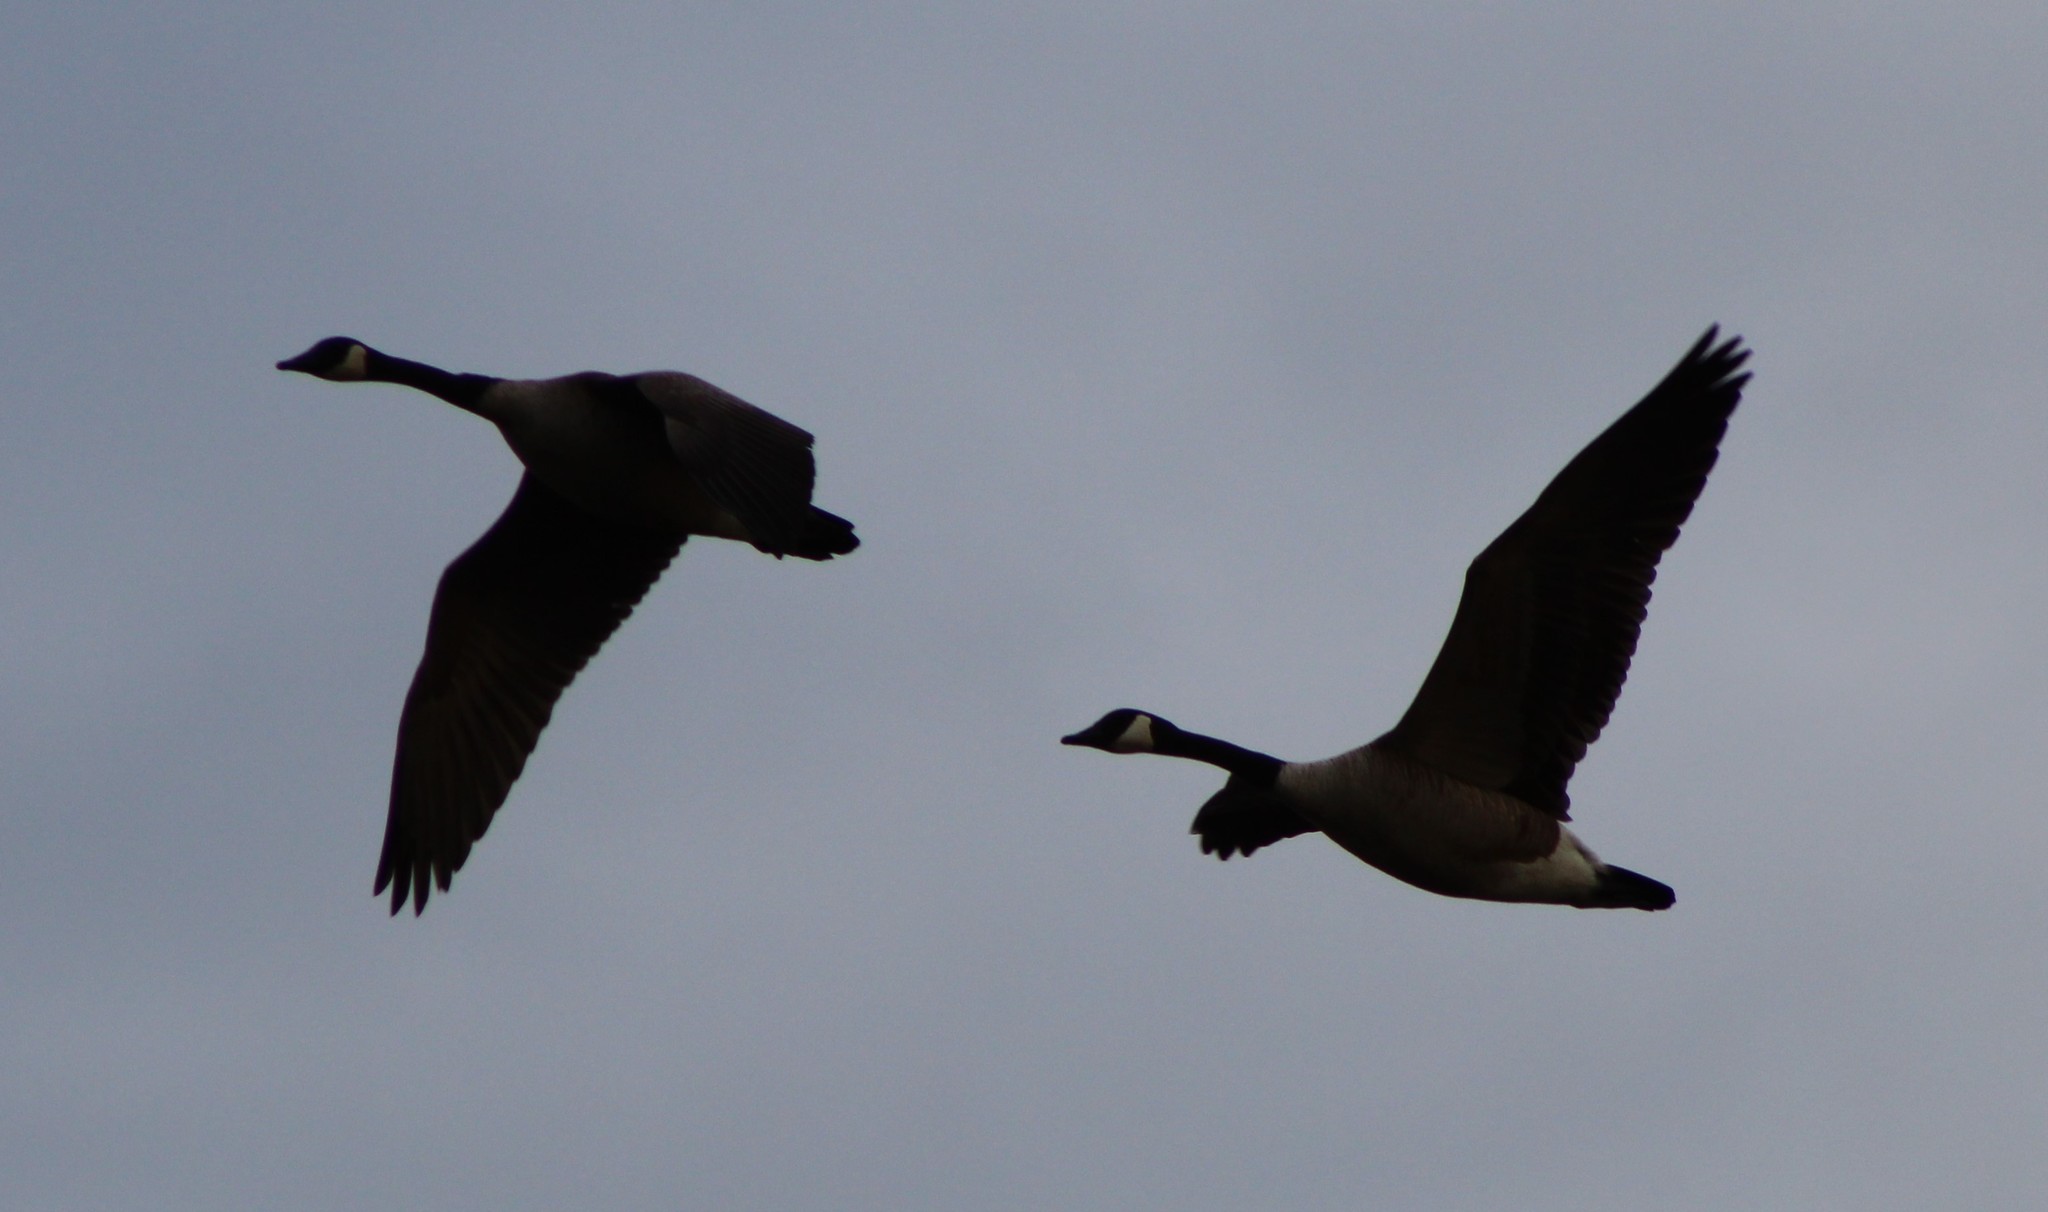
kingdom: Animalia
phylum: Chordata
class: Aves
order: Anseriformes
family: Anatidae
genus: Branta
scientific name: Branta canadensis
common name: Canada goose
